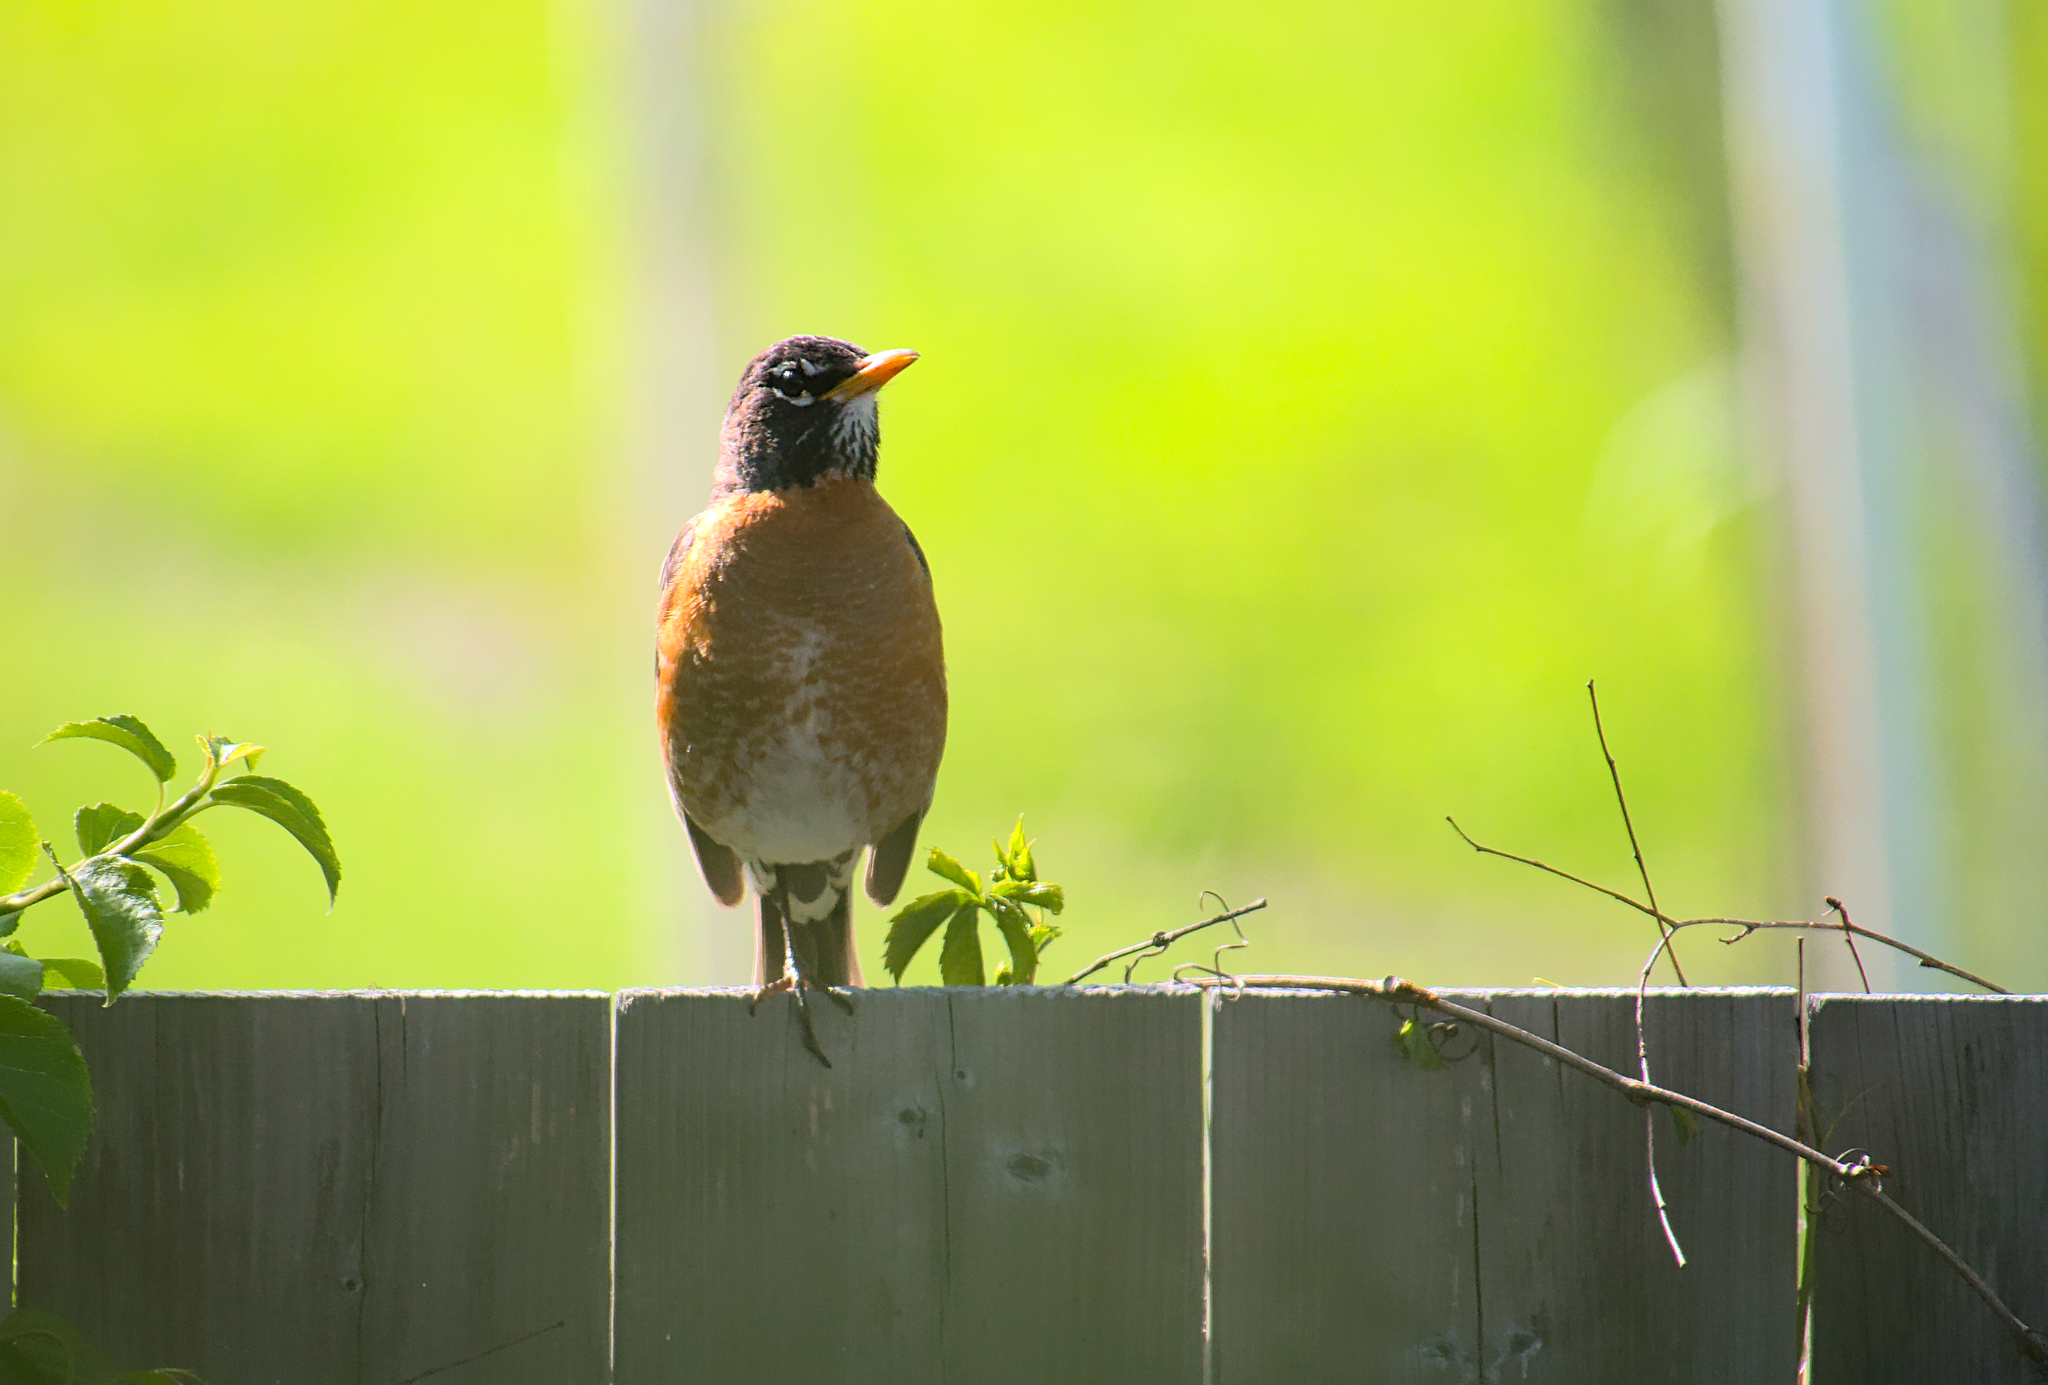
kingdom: Animalia
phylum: Chordata
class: Aves
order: Passeriformes
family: Turdidae
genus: Turdus
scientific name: Turdus migratorius
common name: American robin
